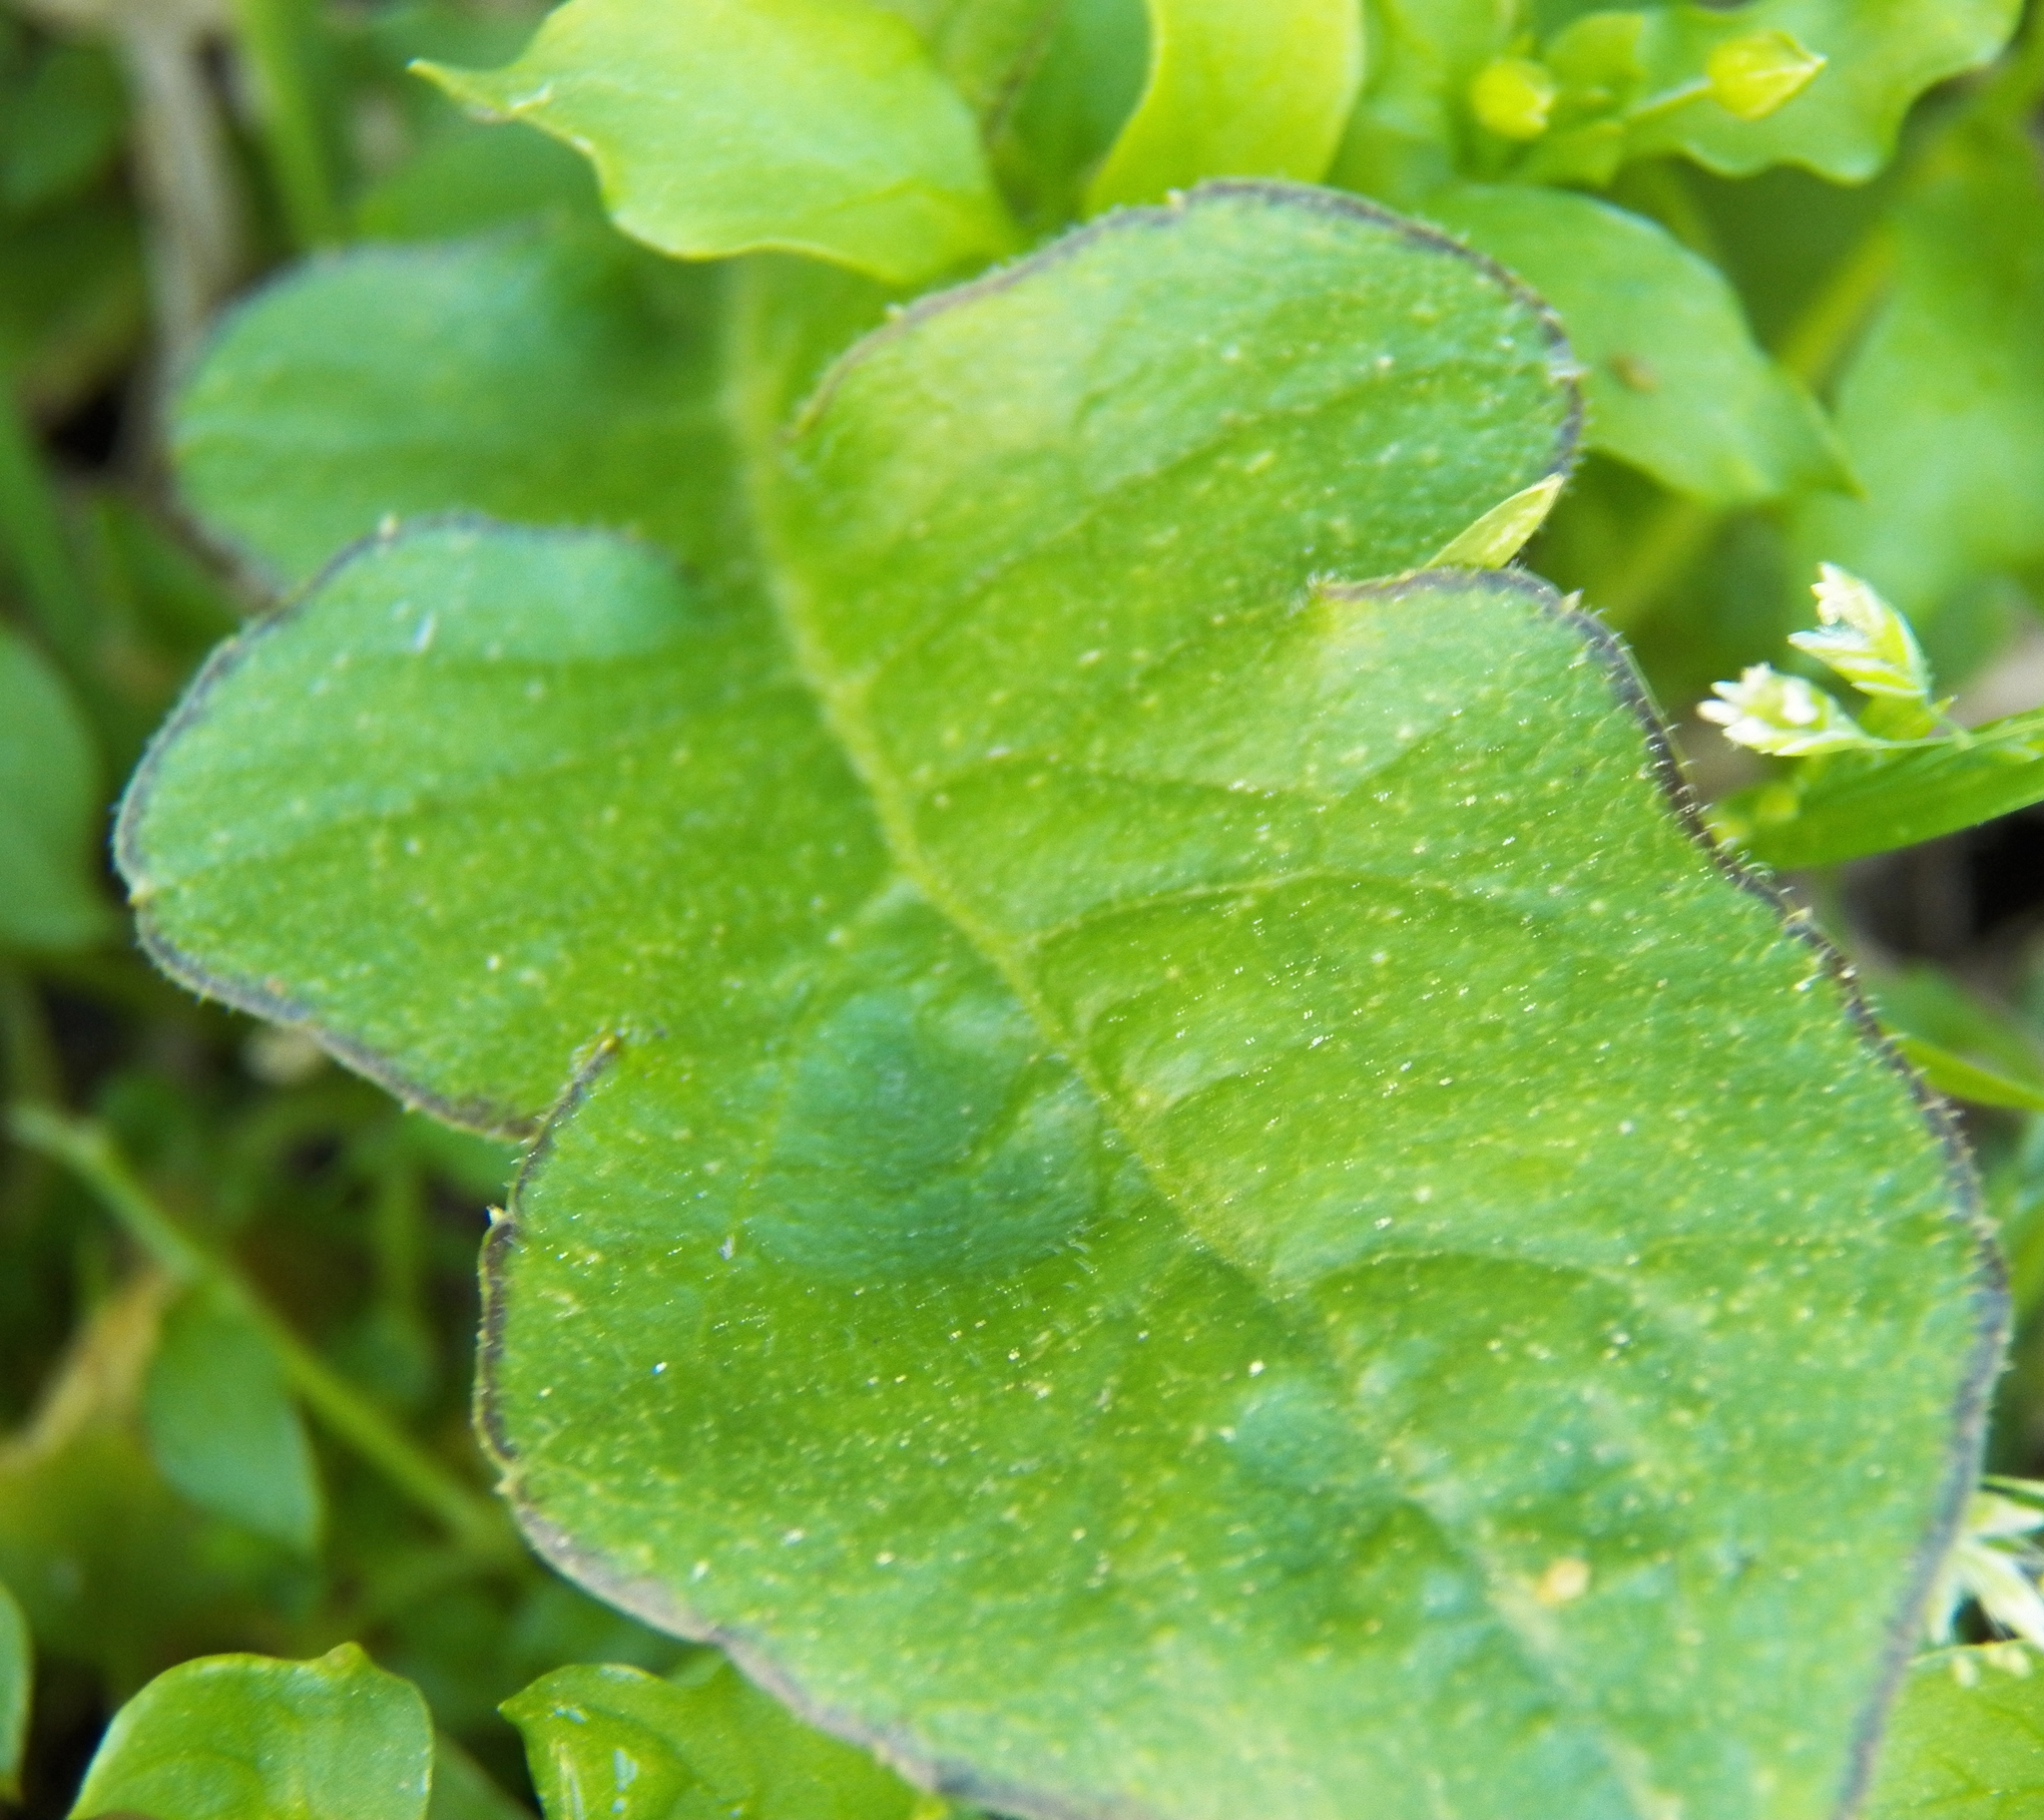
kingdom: Plantae
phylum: Tracheophyta
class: Magnoliopsida
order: Asterales
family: Asteraceae
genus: Youngia
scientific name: Youngia japonica
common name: Oriental false hawksbeard
